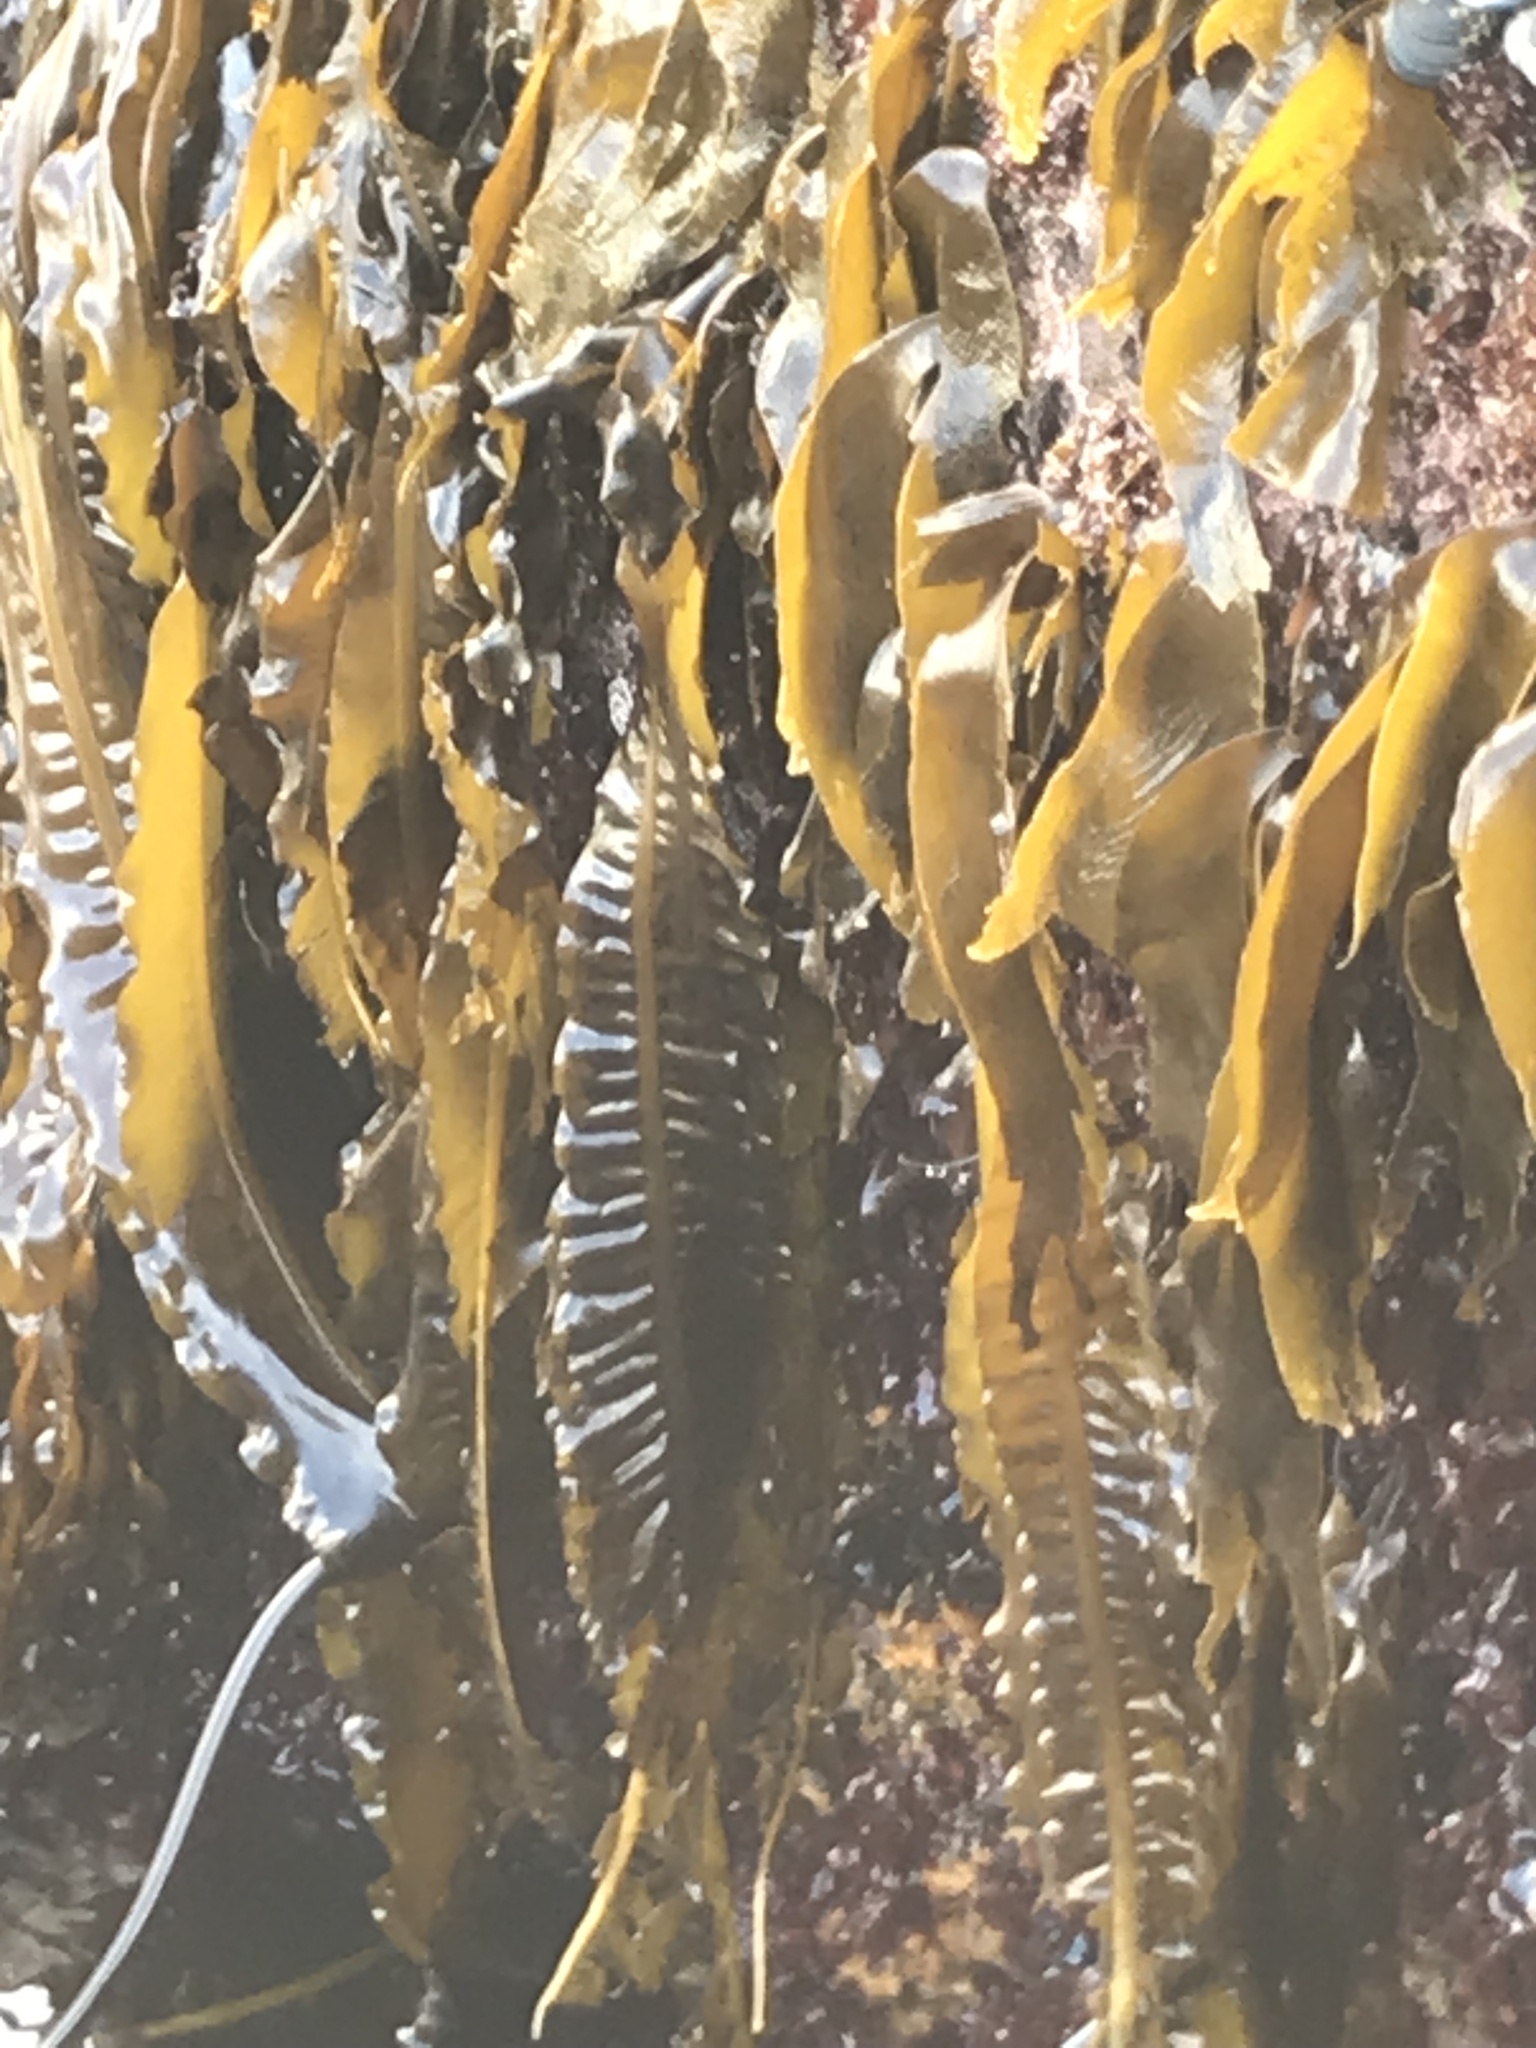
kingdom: Chromista
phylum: Ochrophyta
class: Phaeophyceae
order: Laminariales
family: Alariaceae
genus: Alaria
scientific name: Alaria marginata
